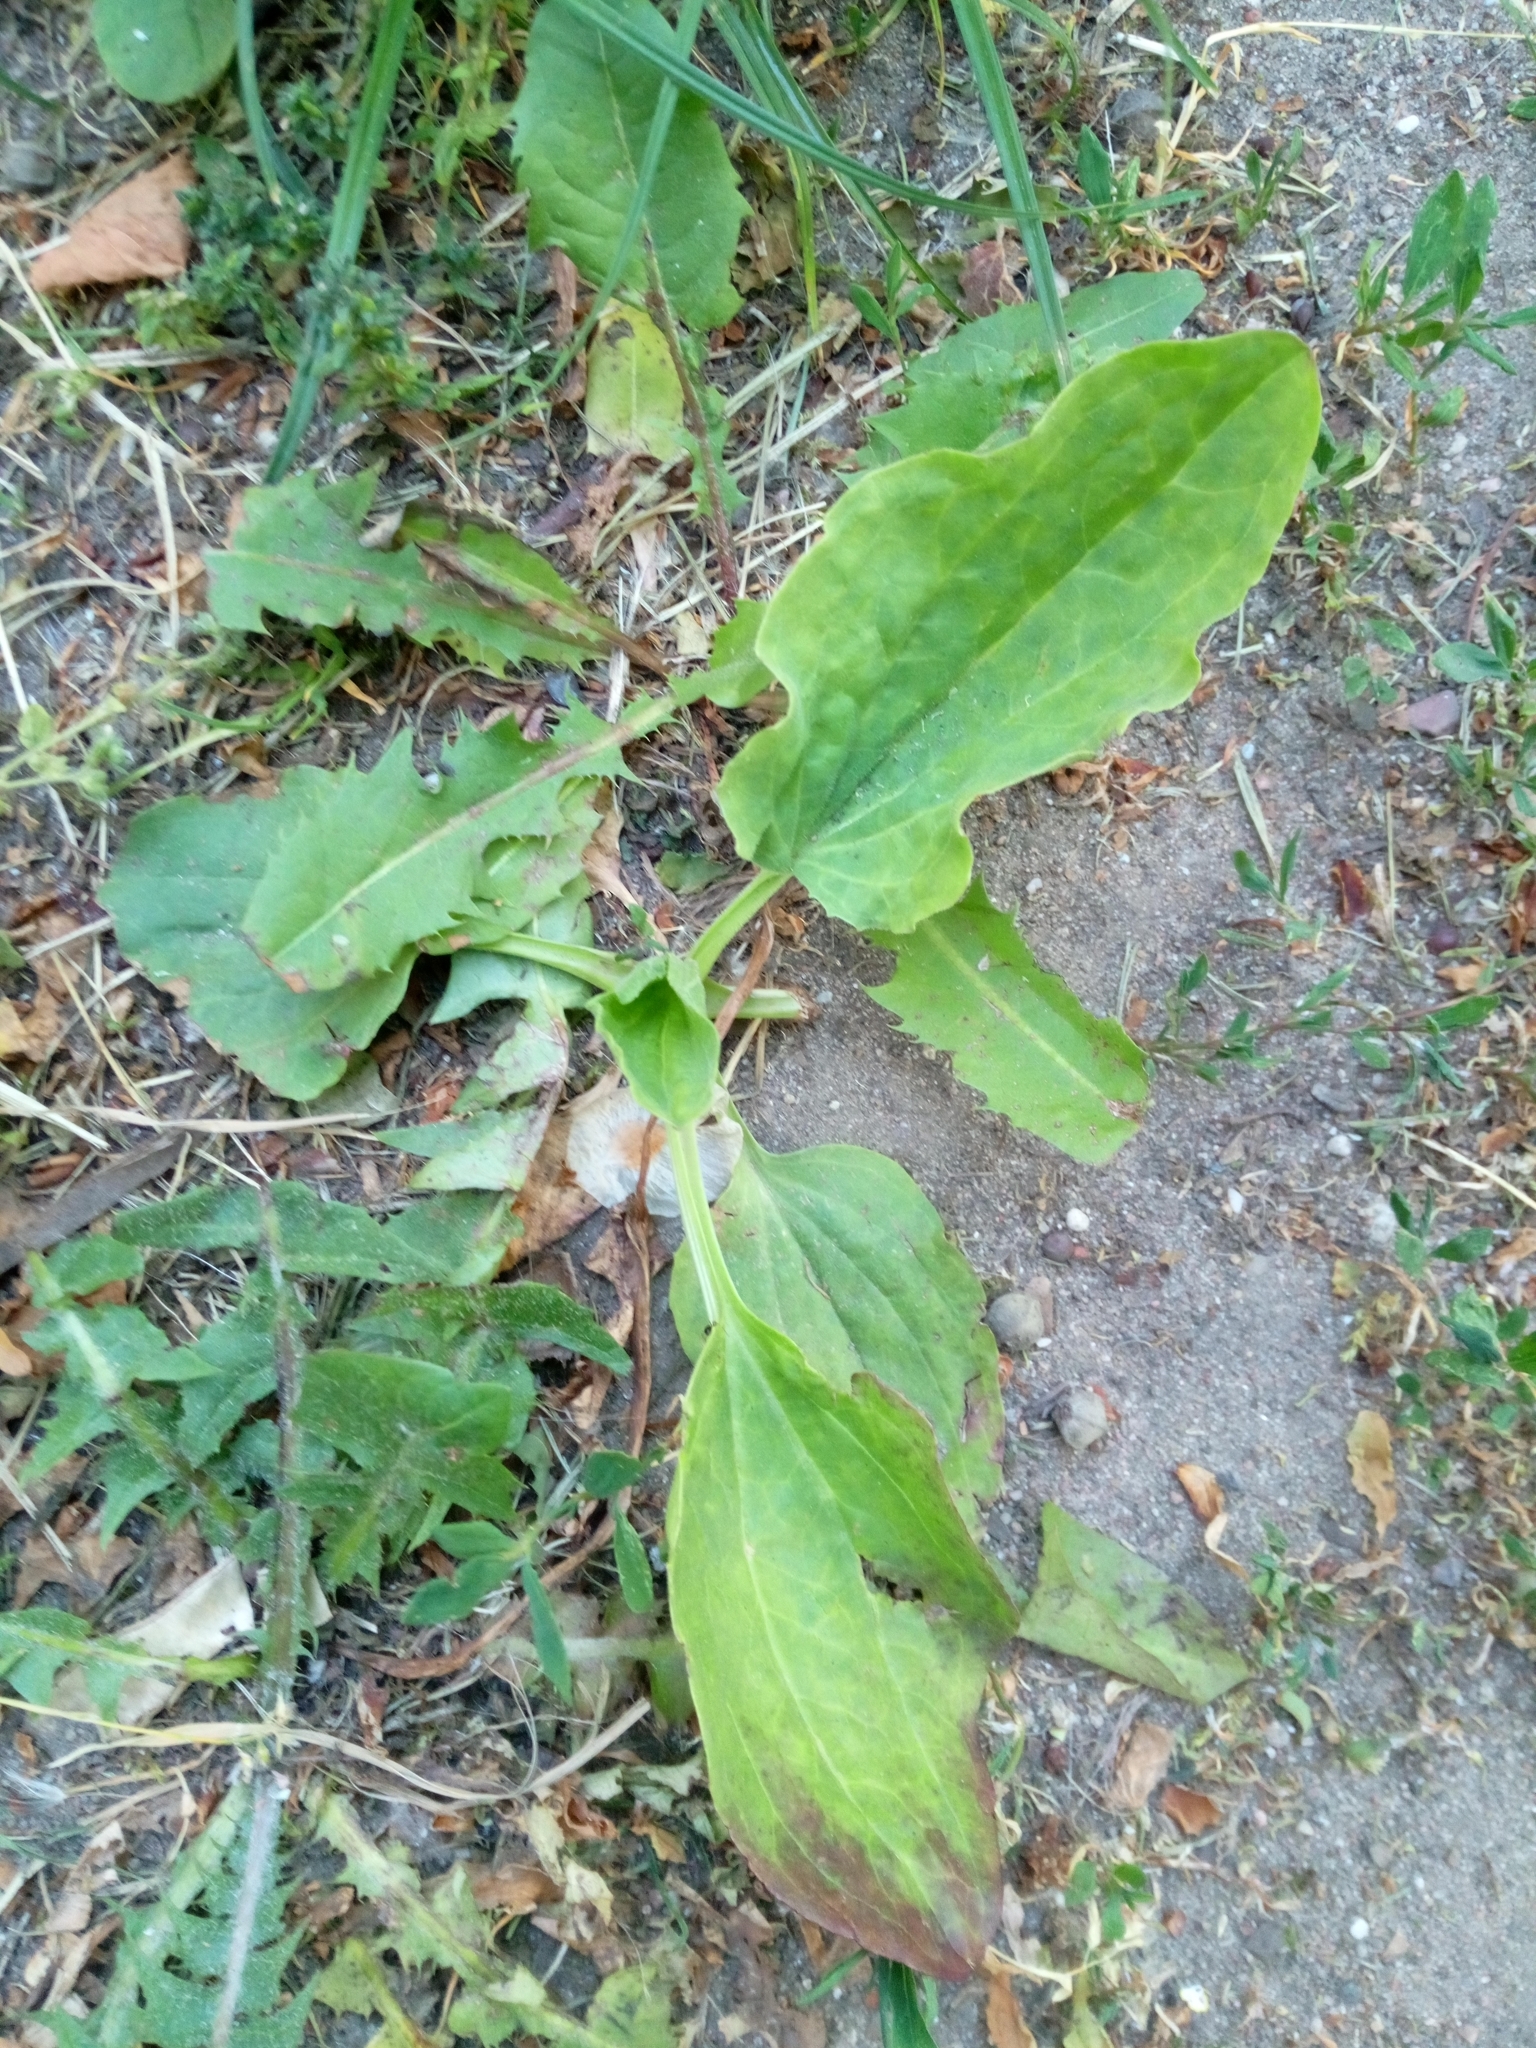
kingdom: Plantae
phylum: Tracheophyta
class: Magnoliopsida
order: Lamiales
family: Plantaginaceae
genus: Plantago
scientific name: Plantago major
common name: Common plantain
